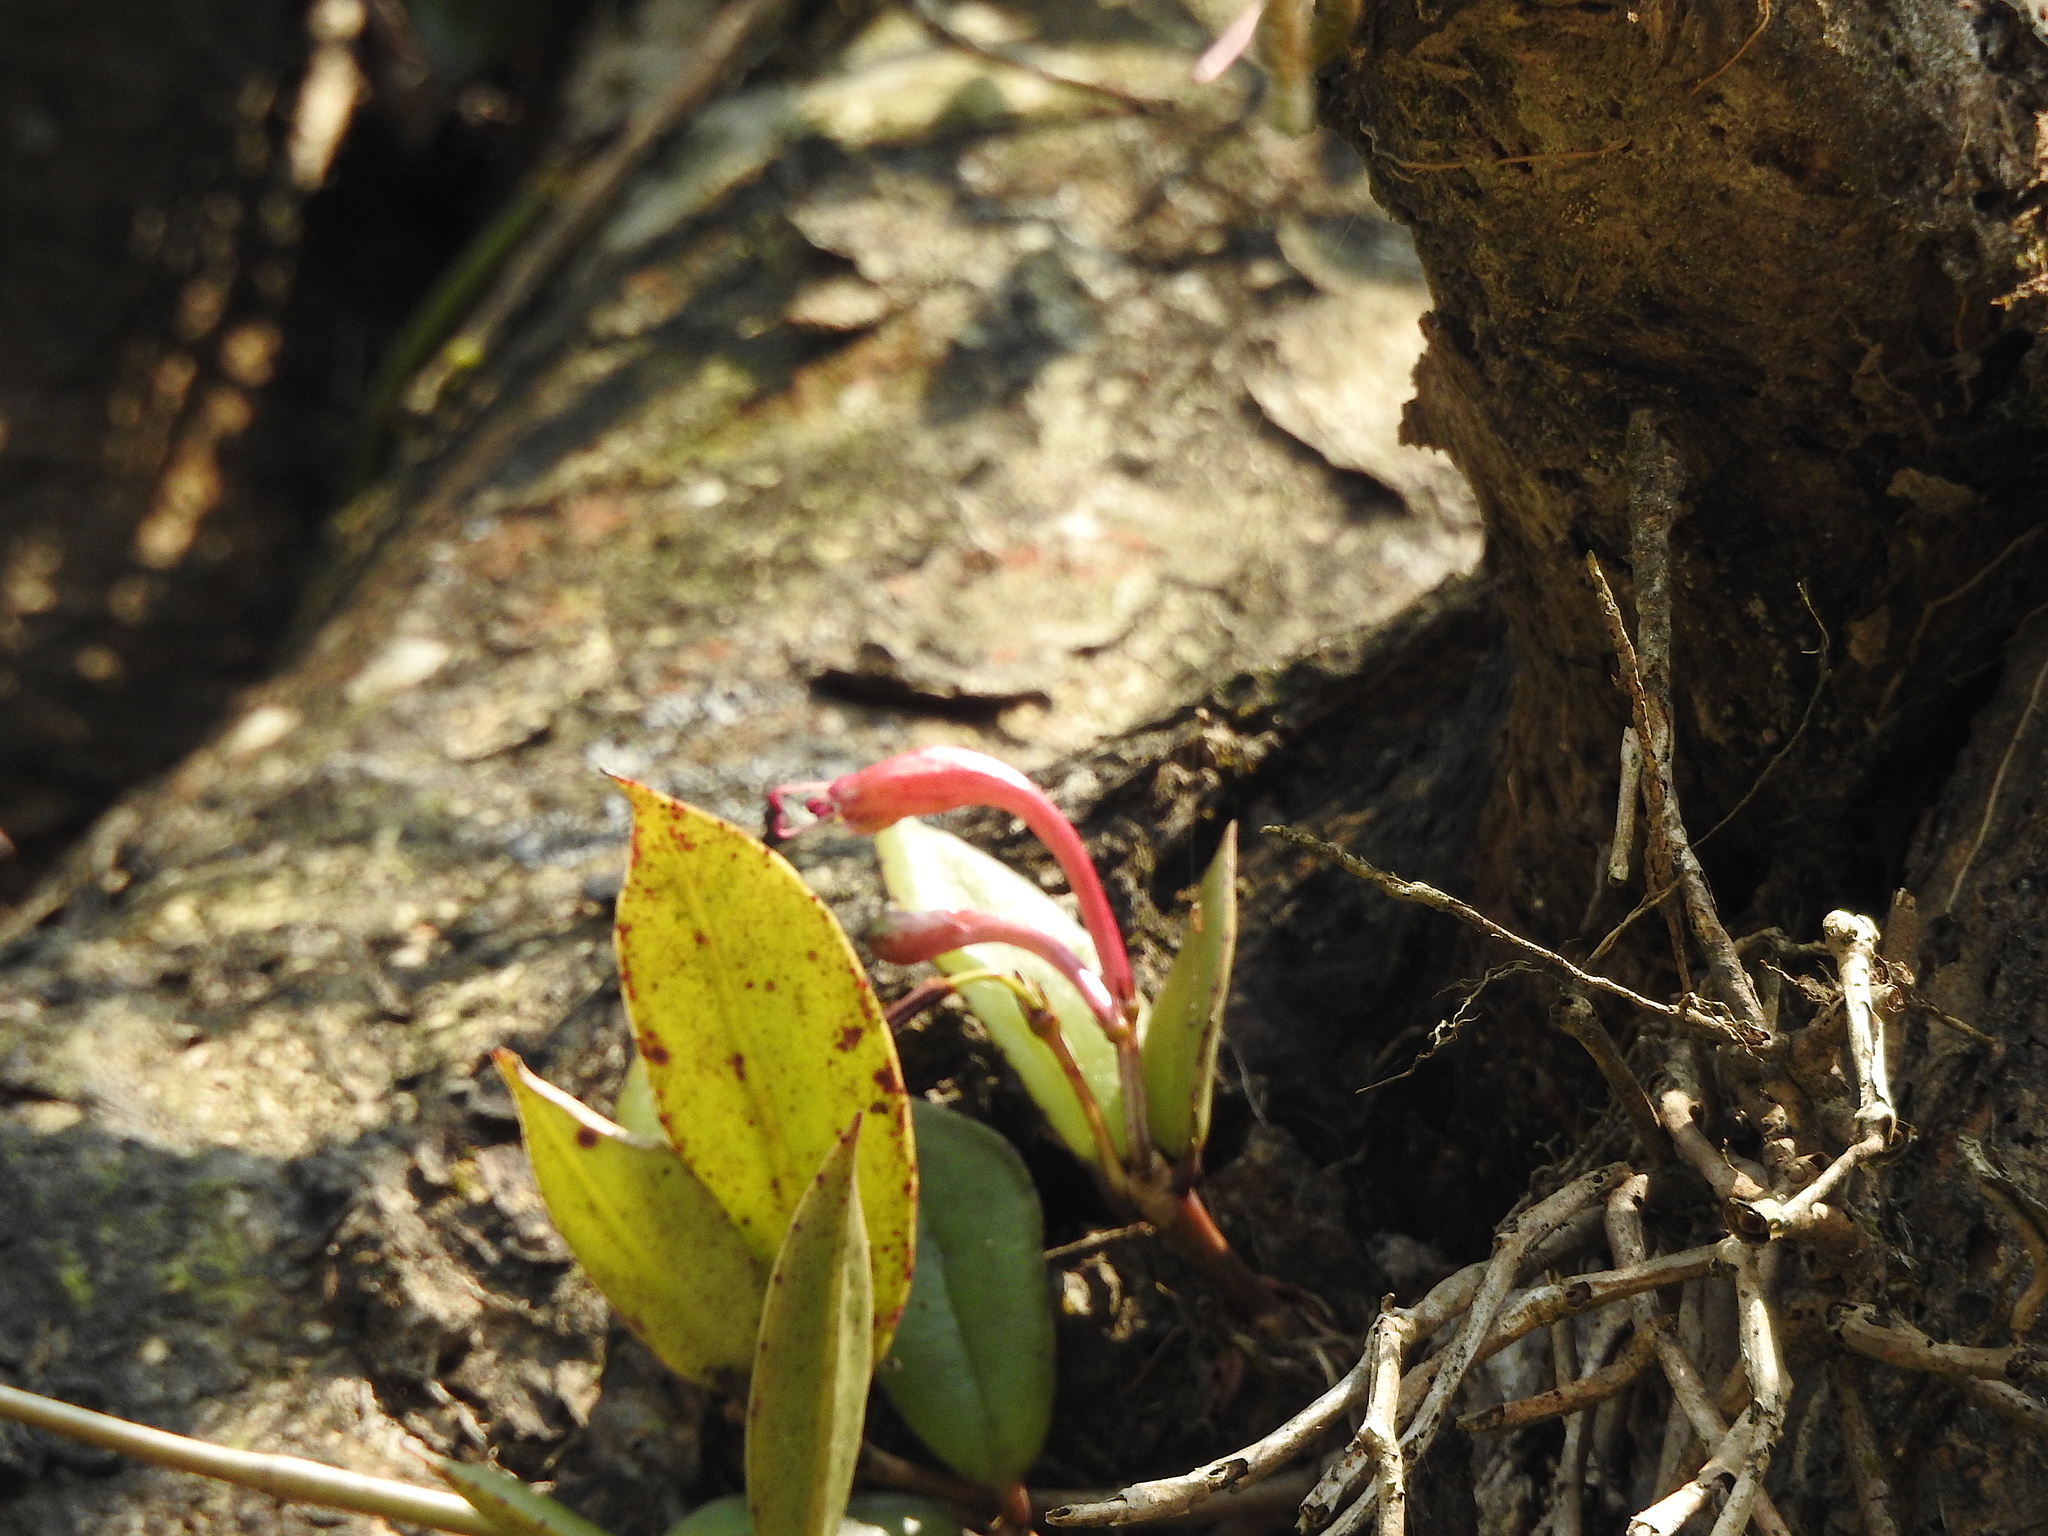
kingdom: Plantae
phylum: Tracheophyta
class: Magnoliopsida
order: Lamiales
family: Gesneriaceae
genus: Aeschynanthus
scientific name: Aeschynanthus perrottetii
